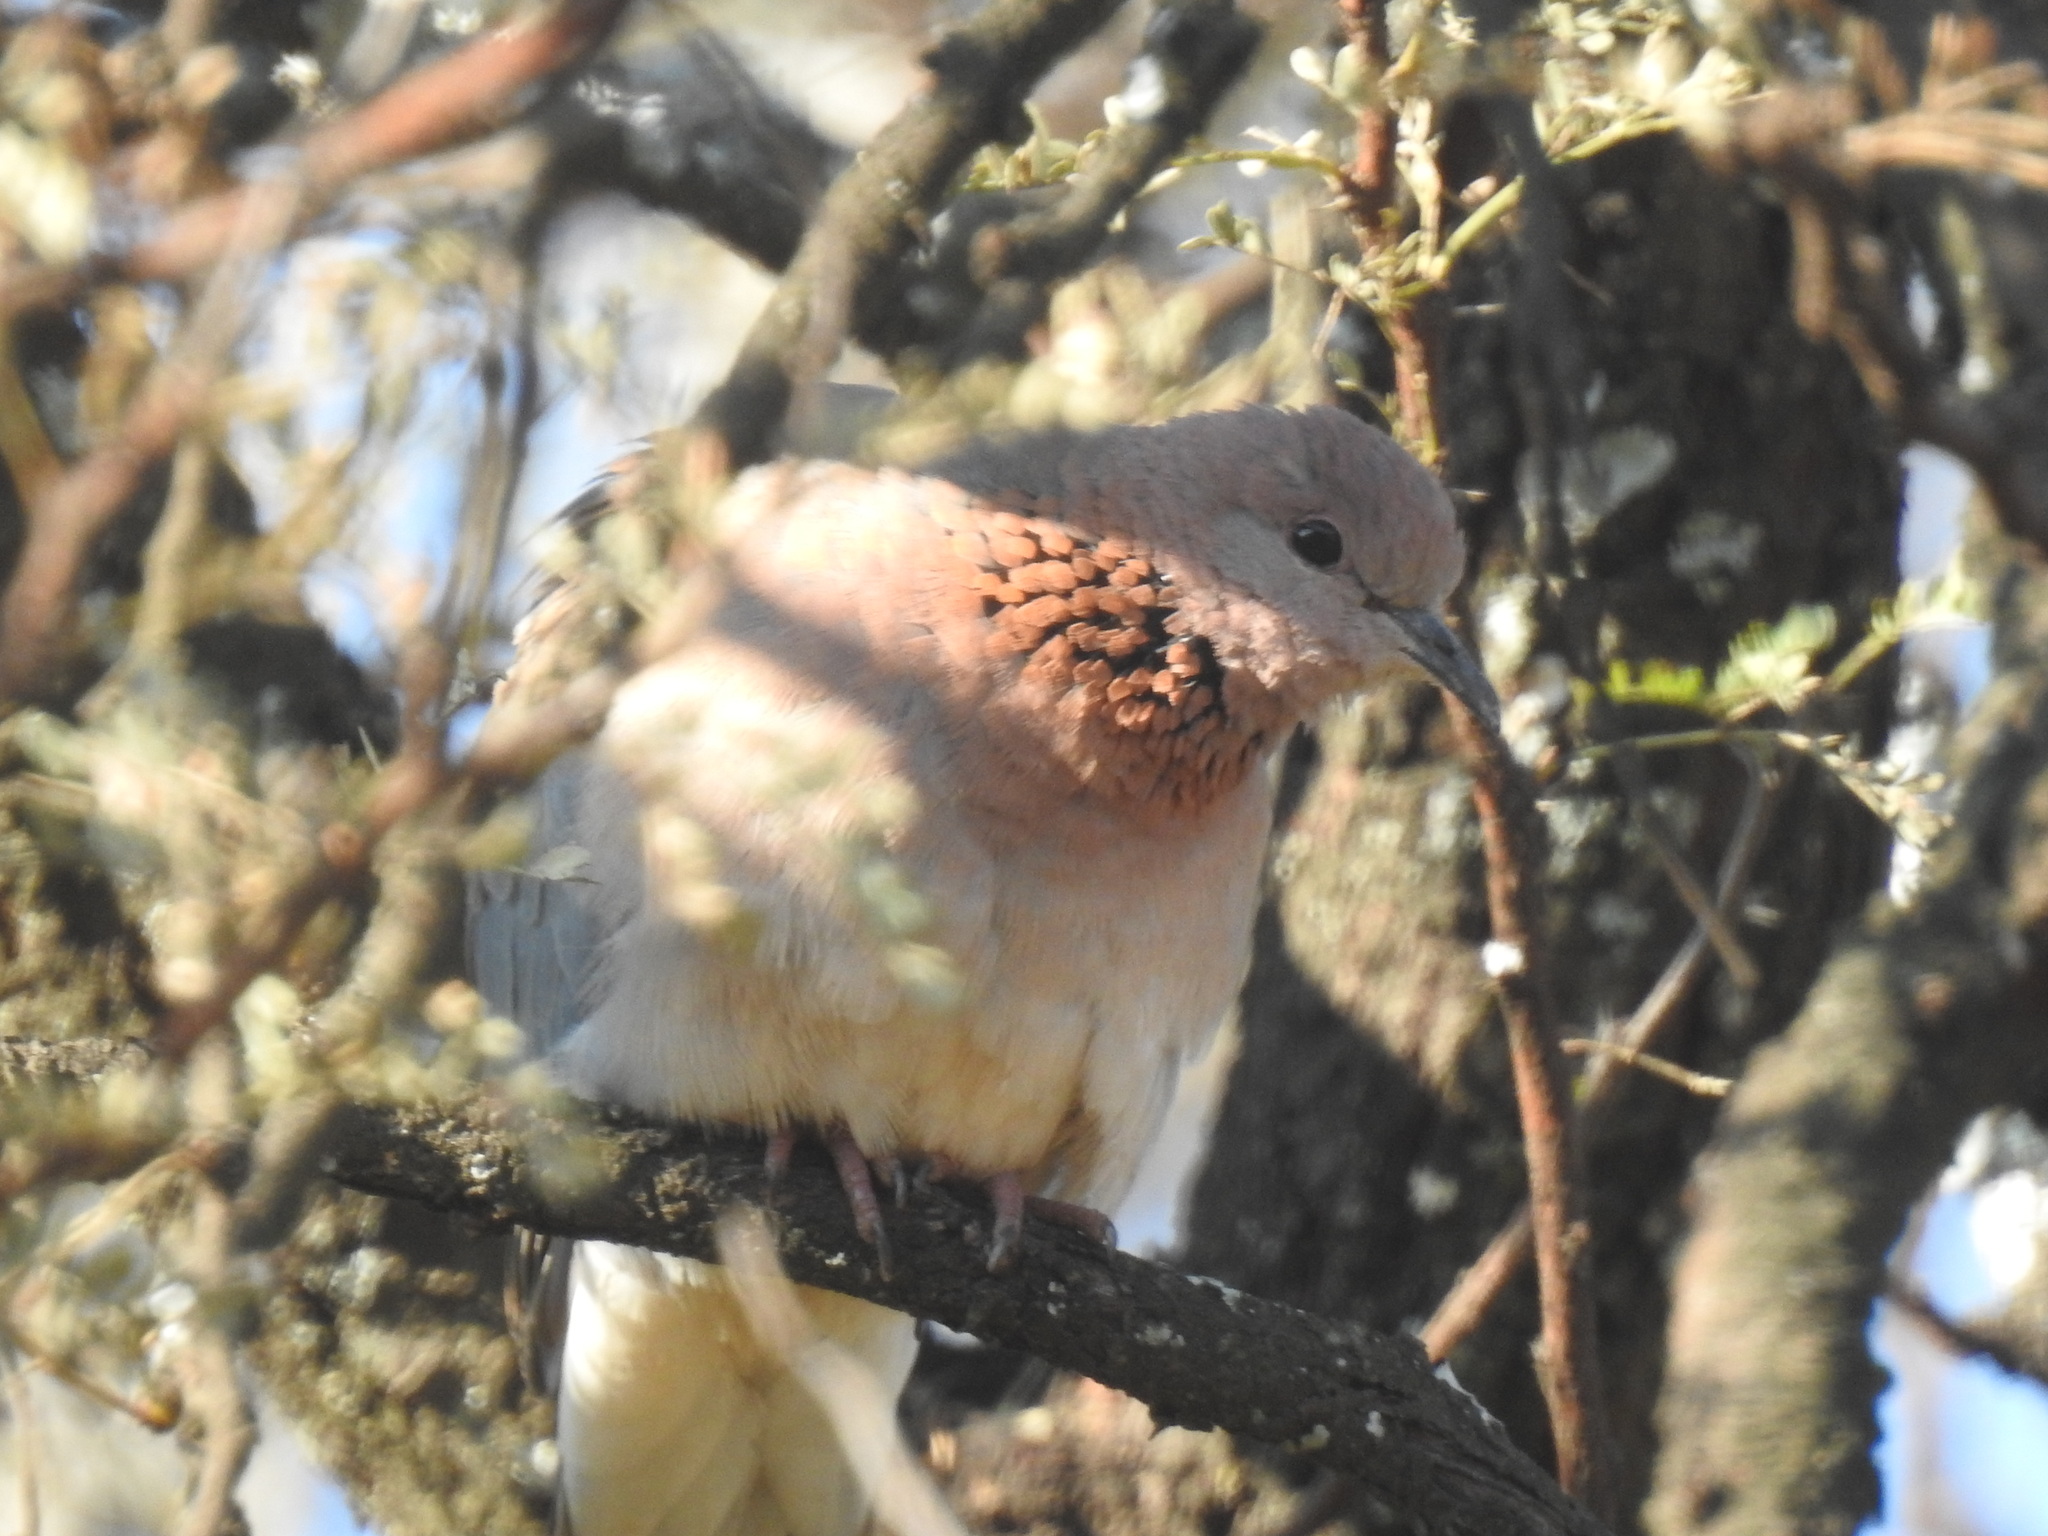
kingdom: Animalia
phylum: Chordata
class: Aves
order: Columbiformes
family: Columbidae
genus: Spilopelia
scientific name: Spilopelia senegalensis
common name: Laughing dove
